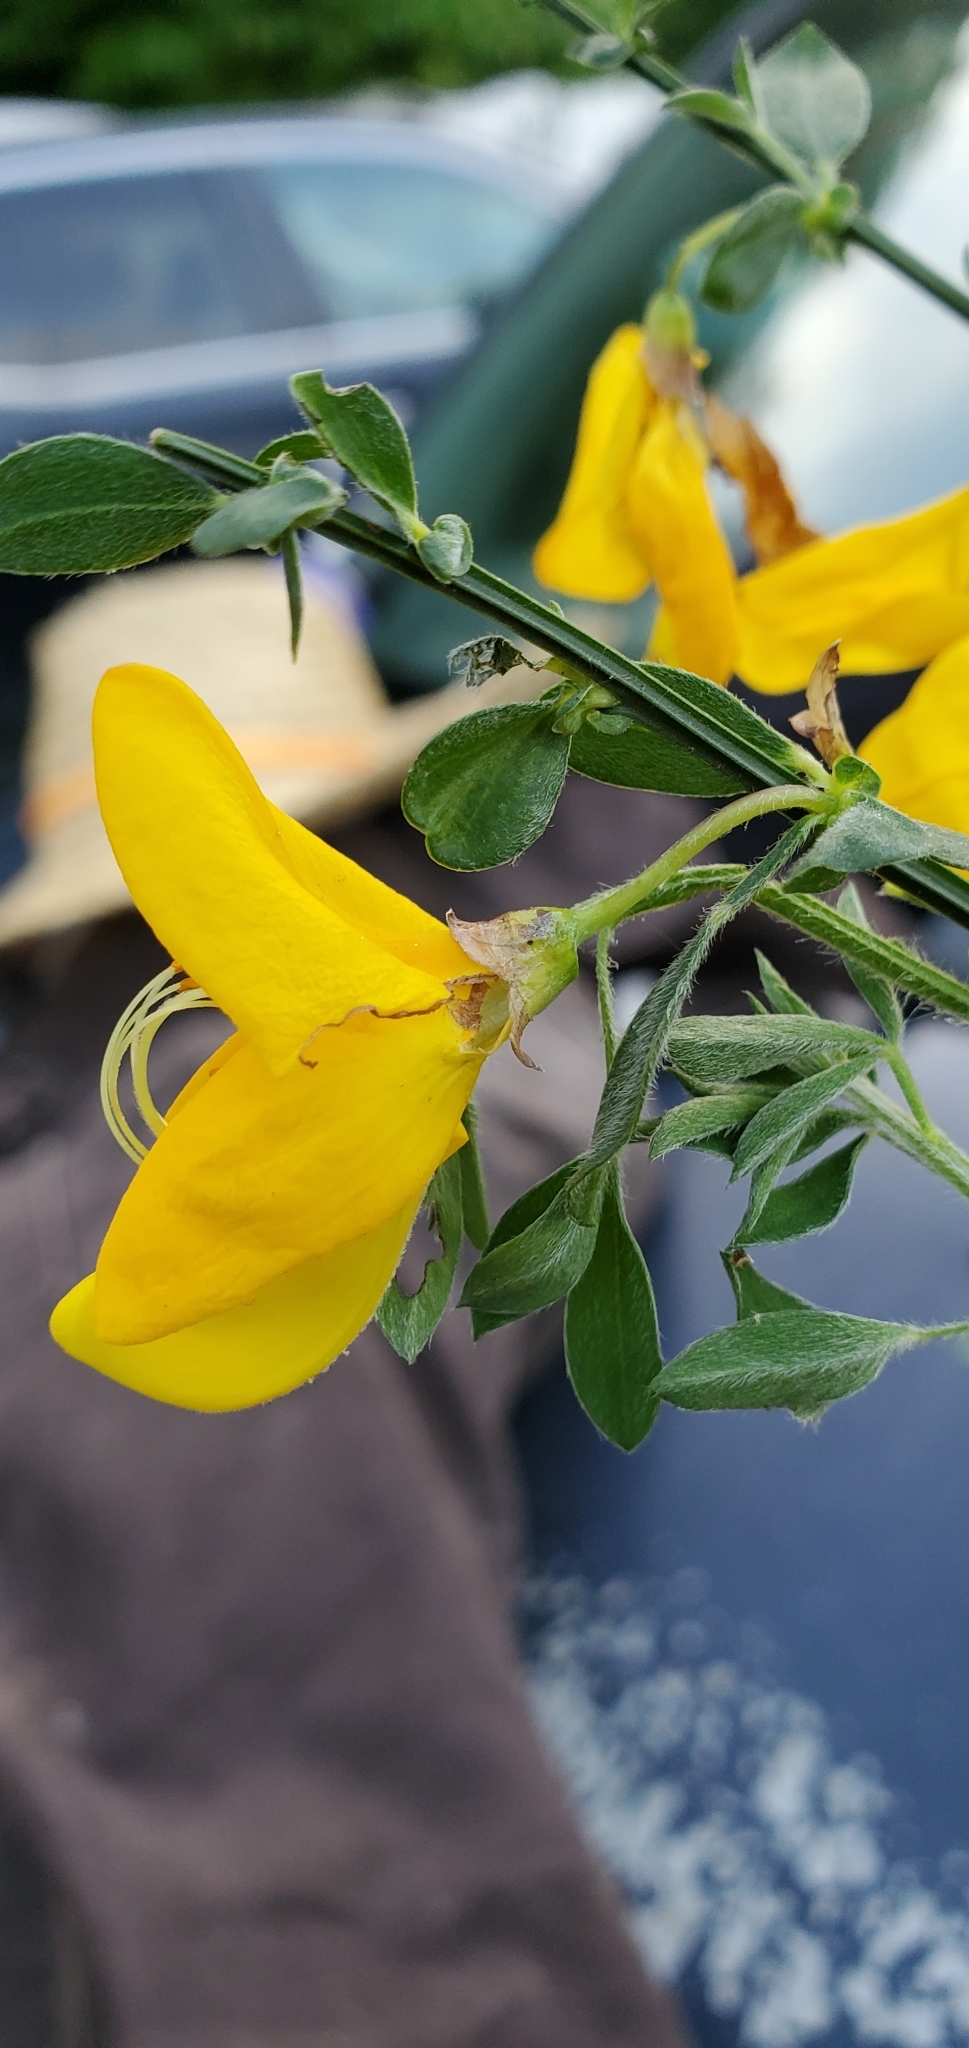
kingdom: Plantae
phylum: Tracheophyta
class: Magnoliopsida
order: Fabales
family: Fabaceae
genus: Cytisus
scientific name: Cytisus scoparius
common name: Scotch broom
